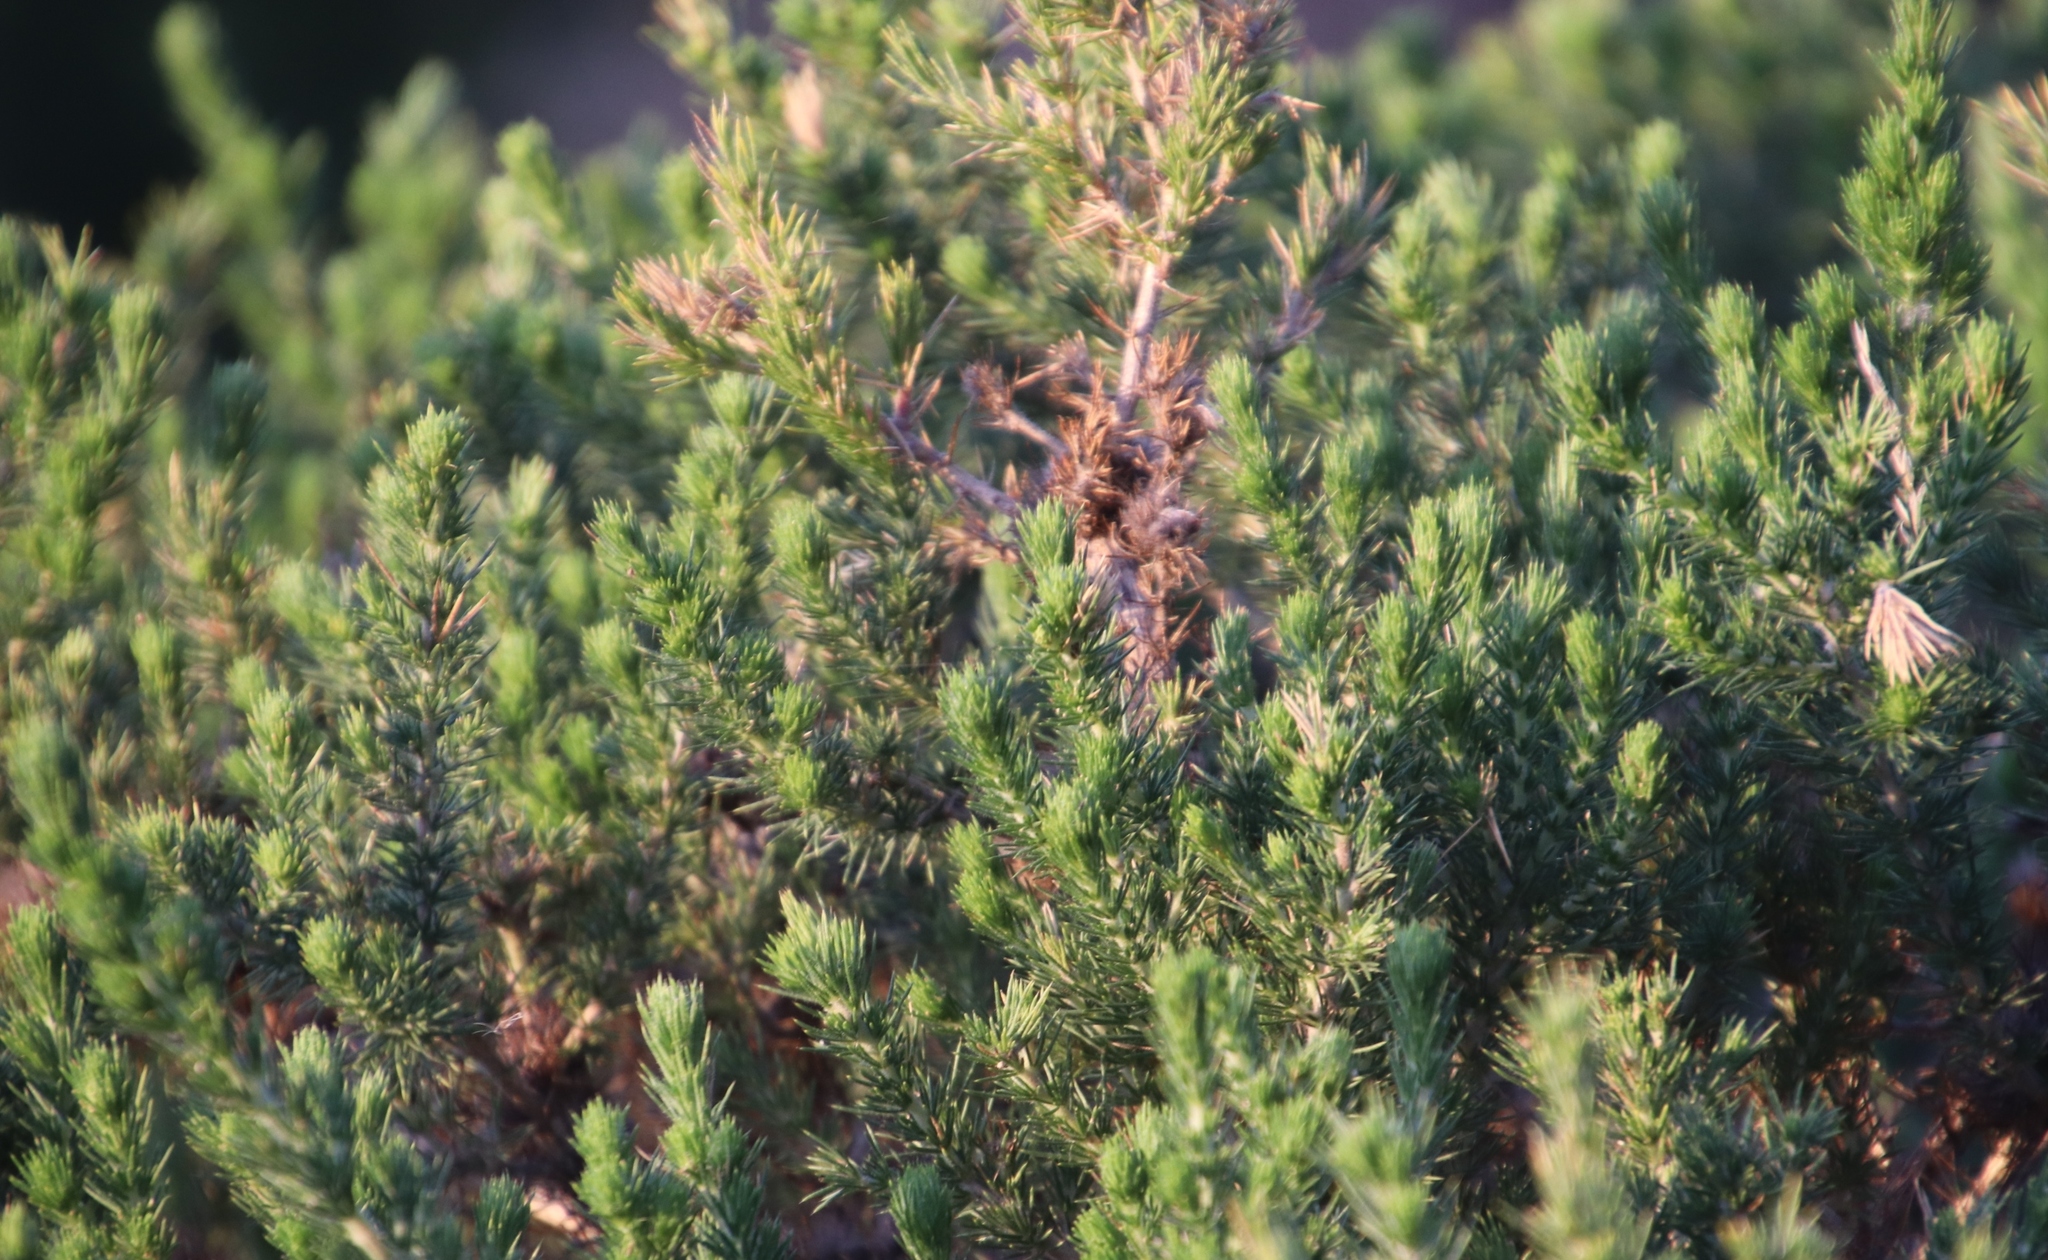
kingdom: Plantae
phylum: Tracheophyta
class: Magnoliopsida
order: Fabales
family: Fabaceae
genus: Aspalathus
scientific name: Aspalathus chenopoda
